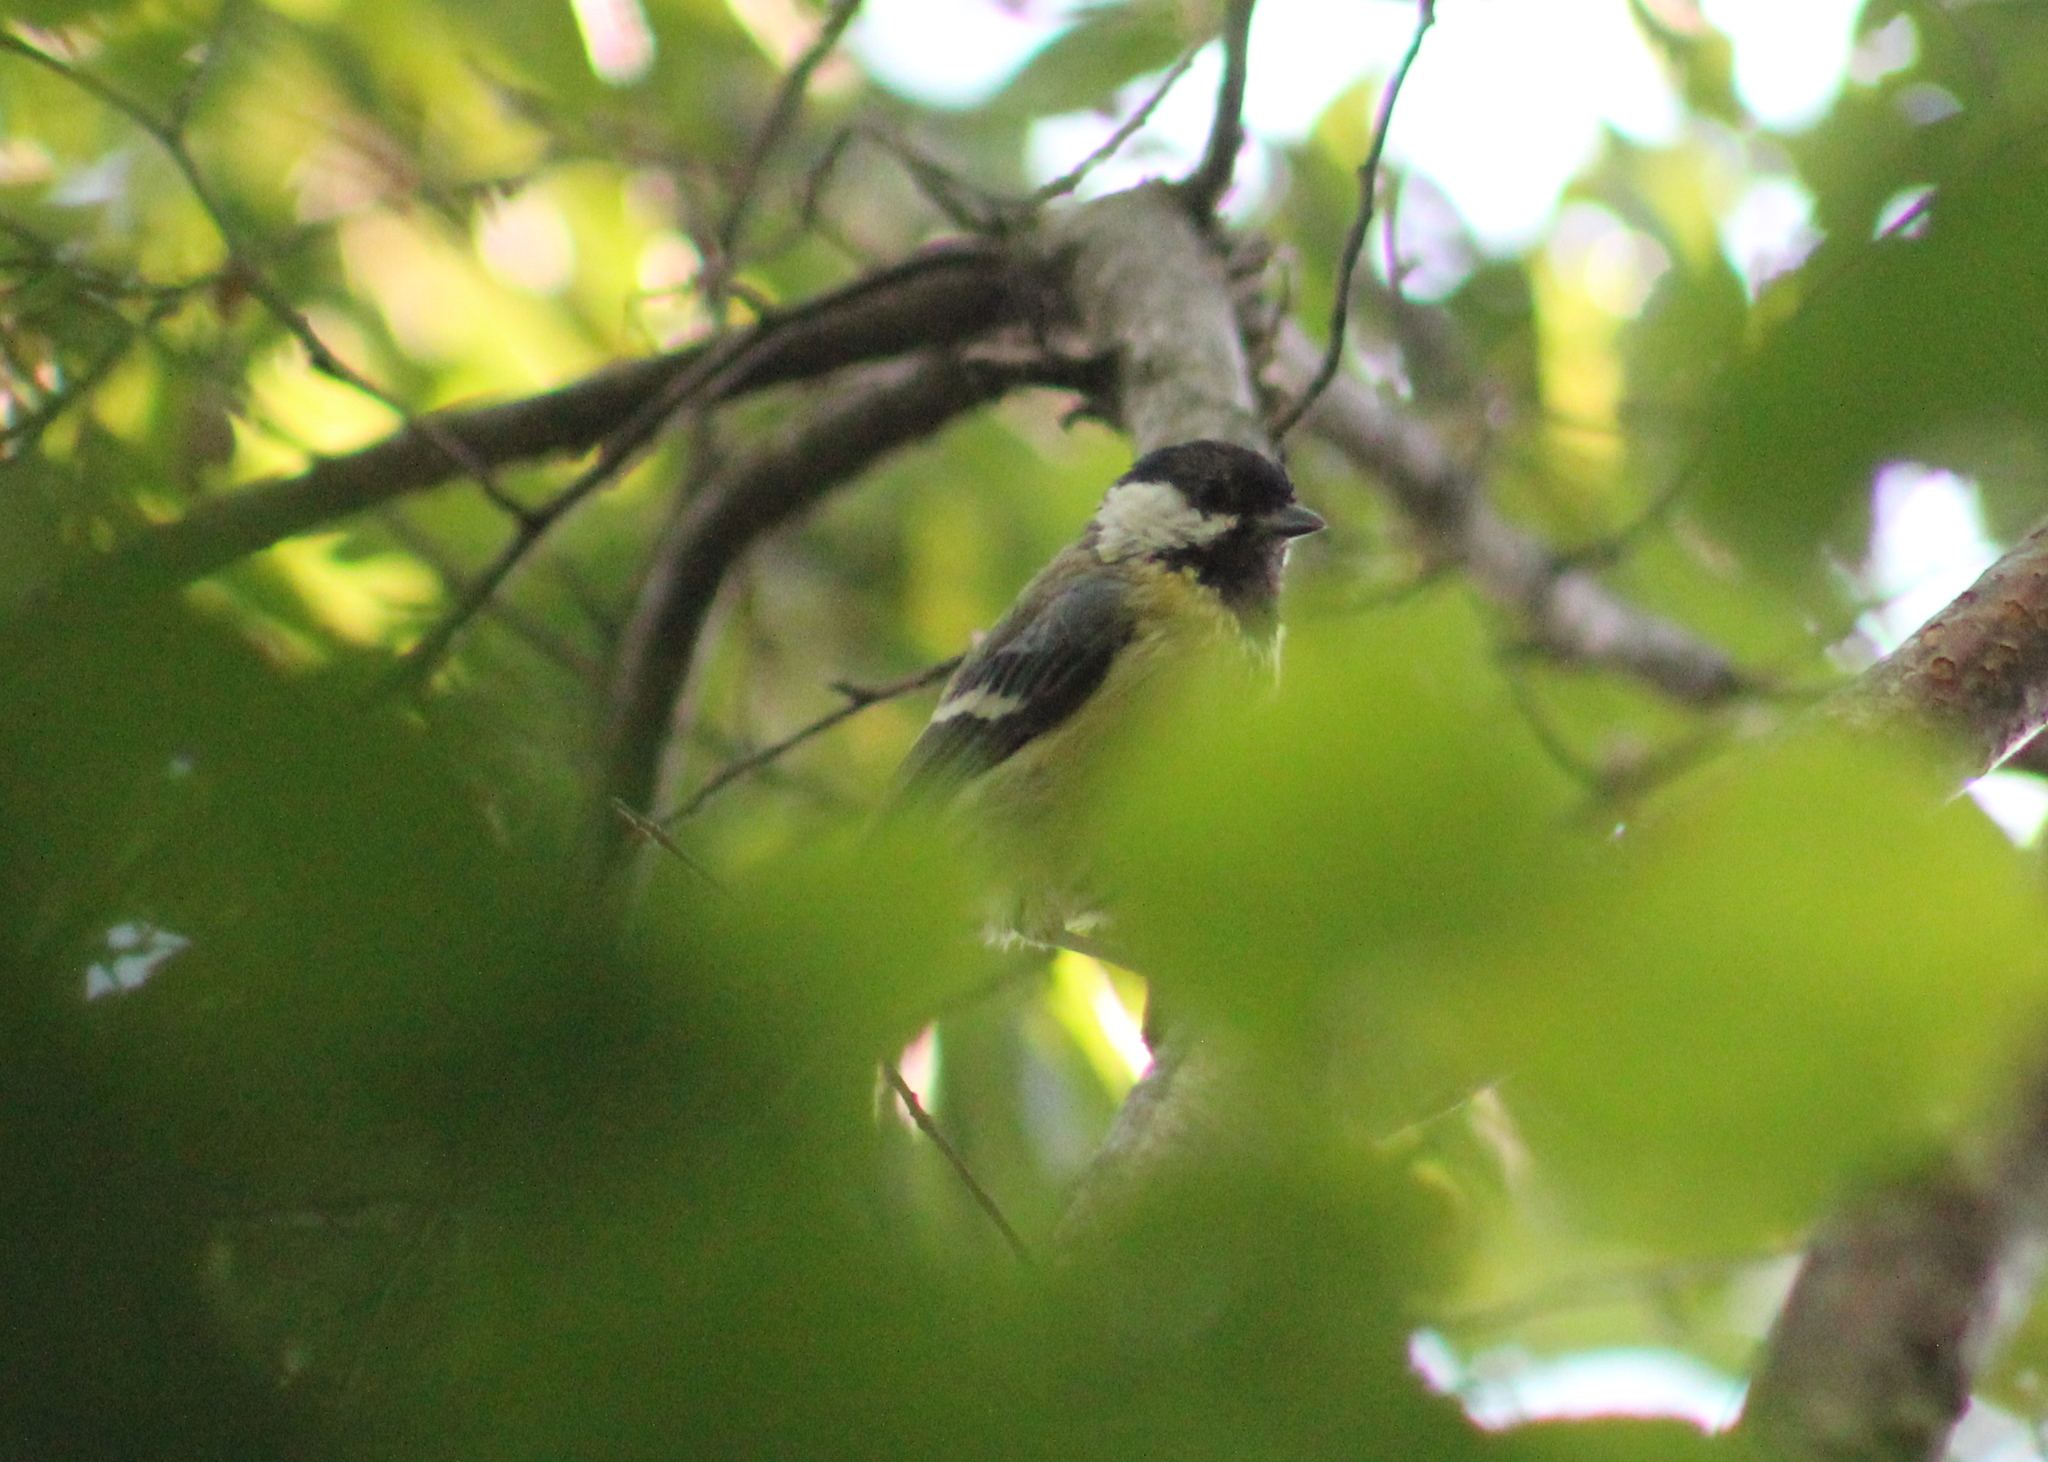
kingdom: Animalia
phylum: Chordata
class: Aves
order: Passeriformes
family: Paridae
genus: Parus
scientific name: Parus major
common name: Great tit
